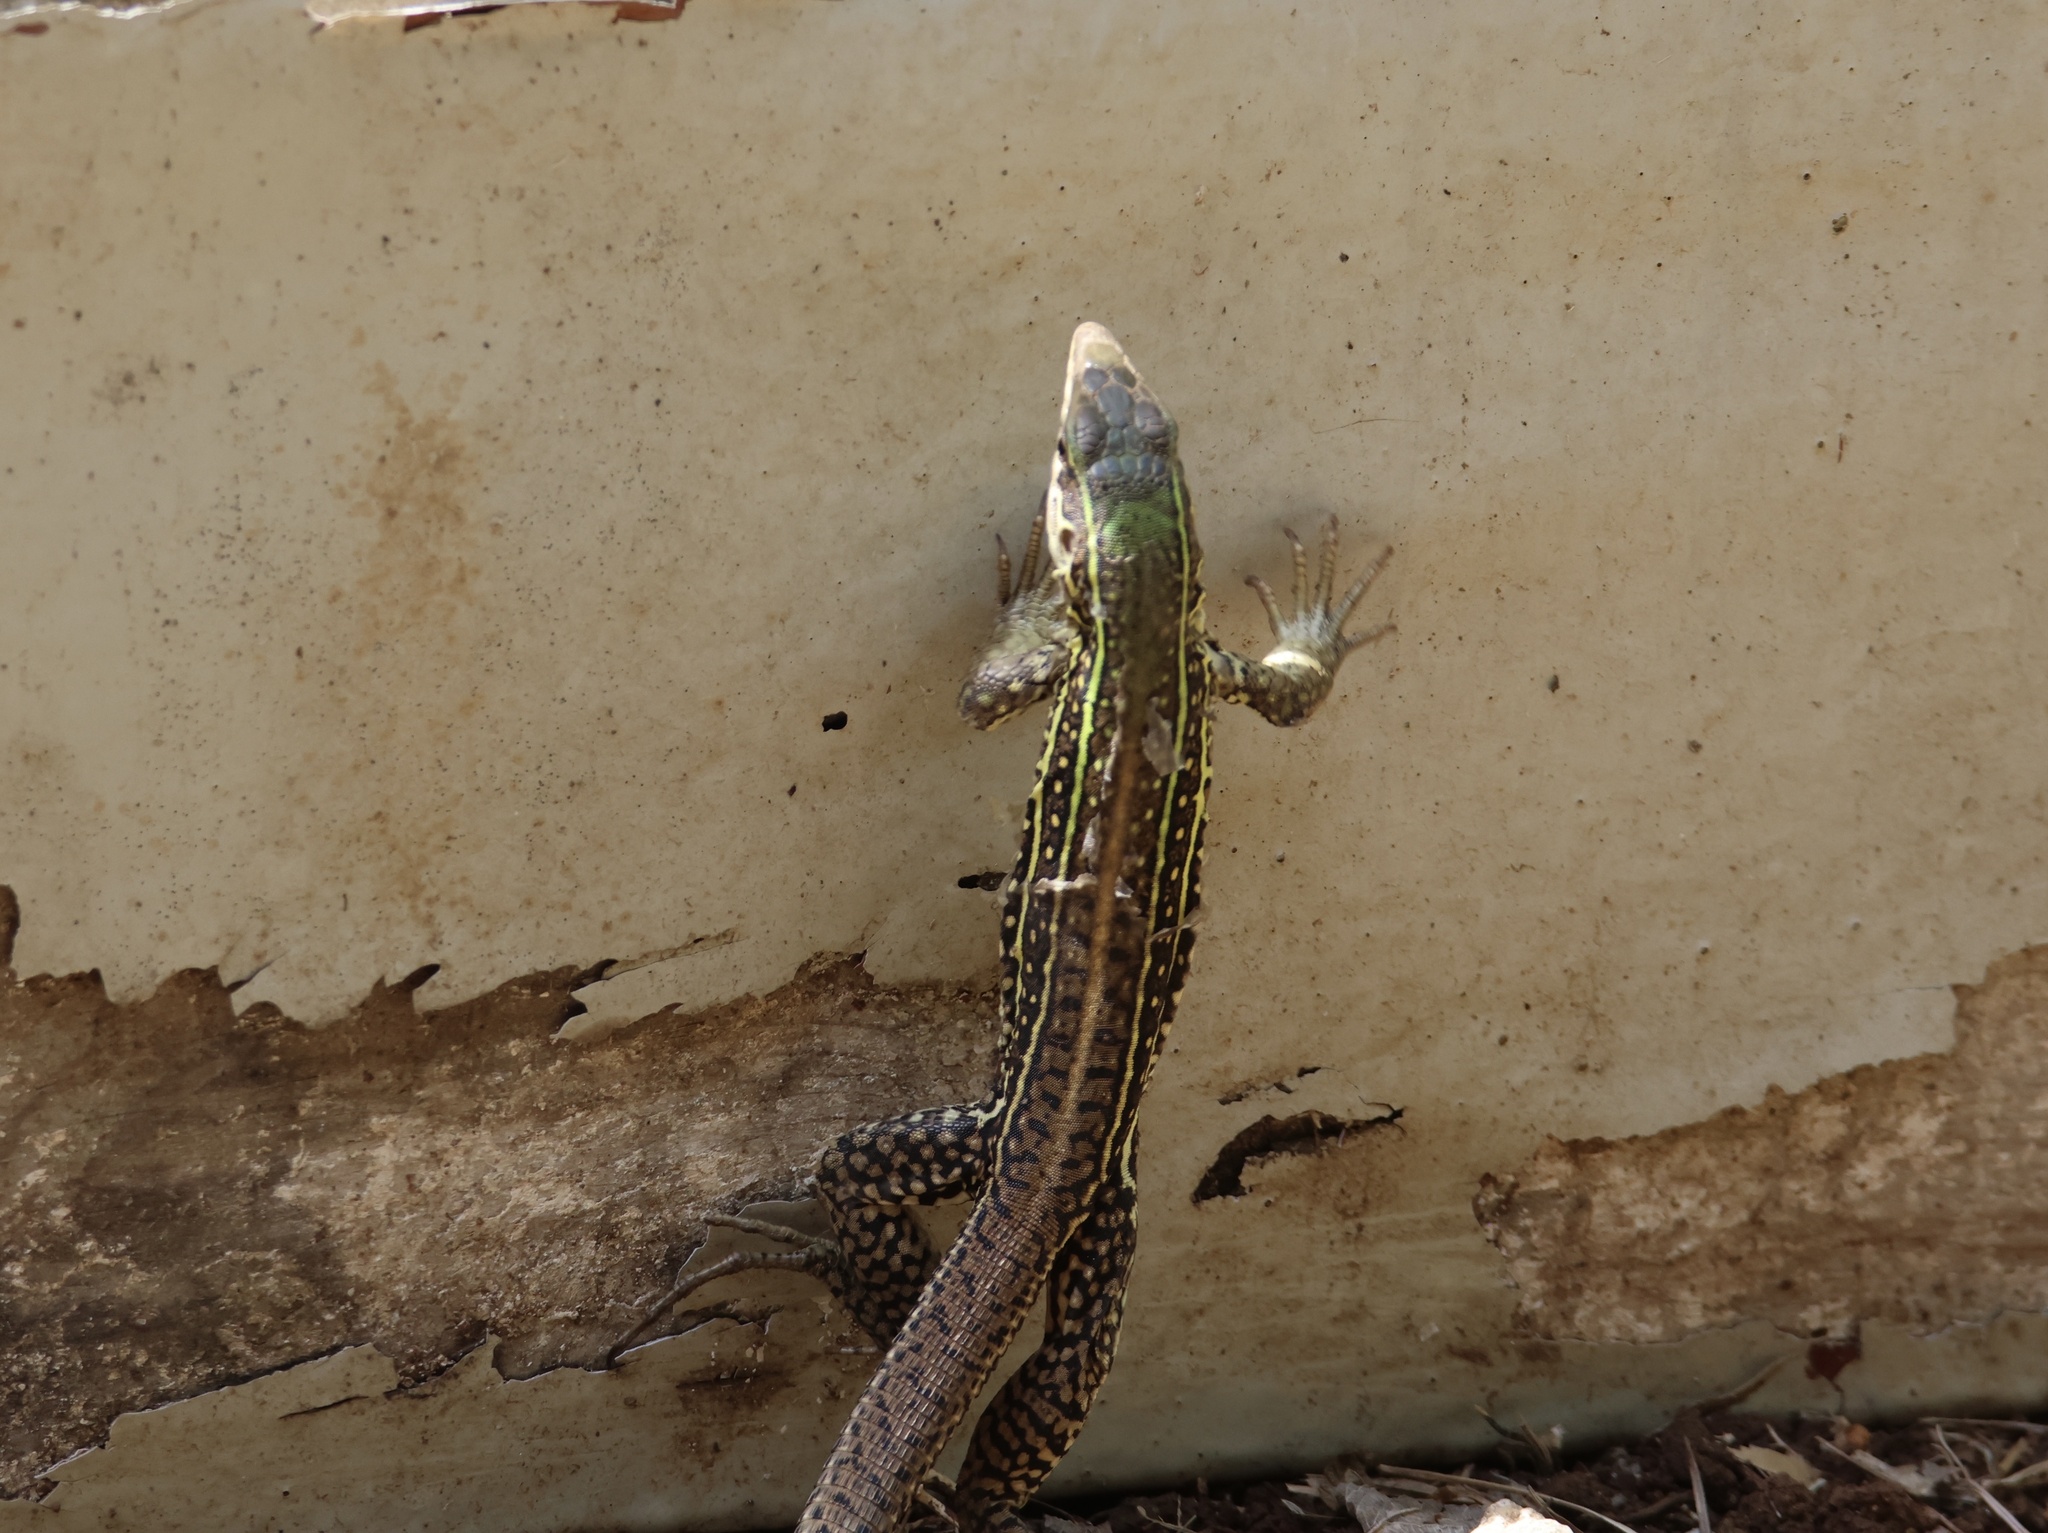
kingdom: Animalia
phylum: Chordata
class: Squamata
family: Teiidae
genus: Ameiva
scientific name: Ameiva praesignis
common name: Giant ameiva
